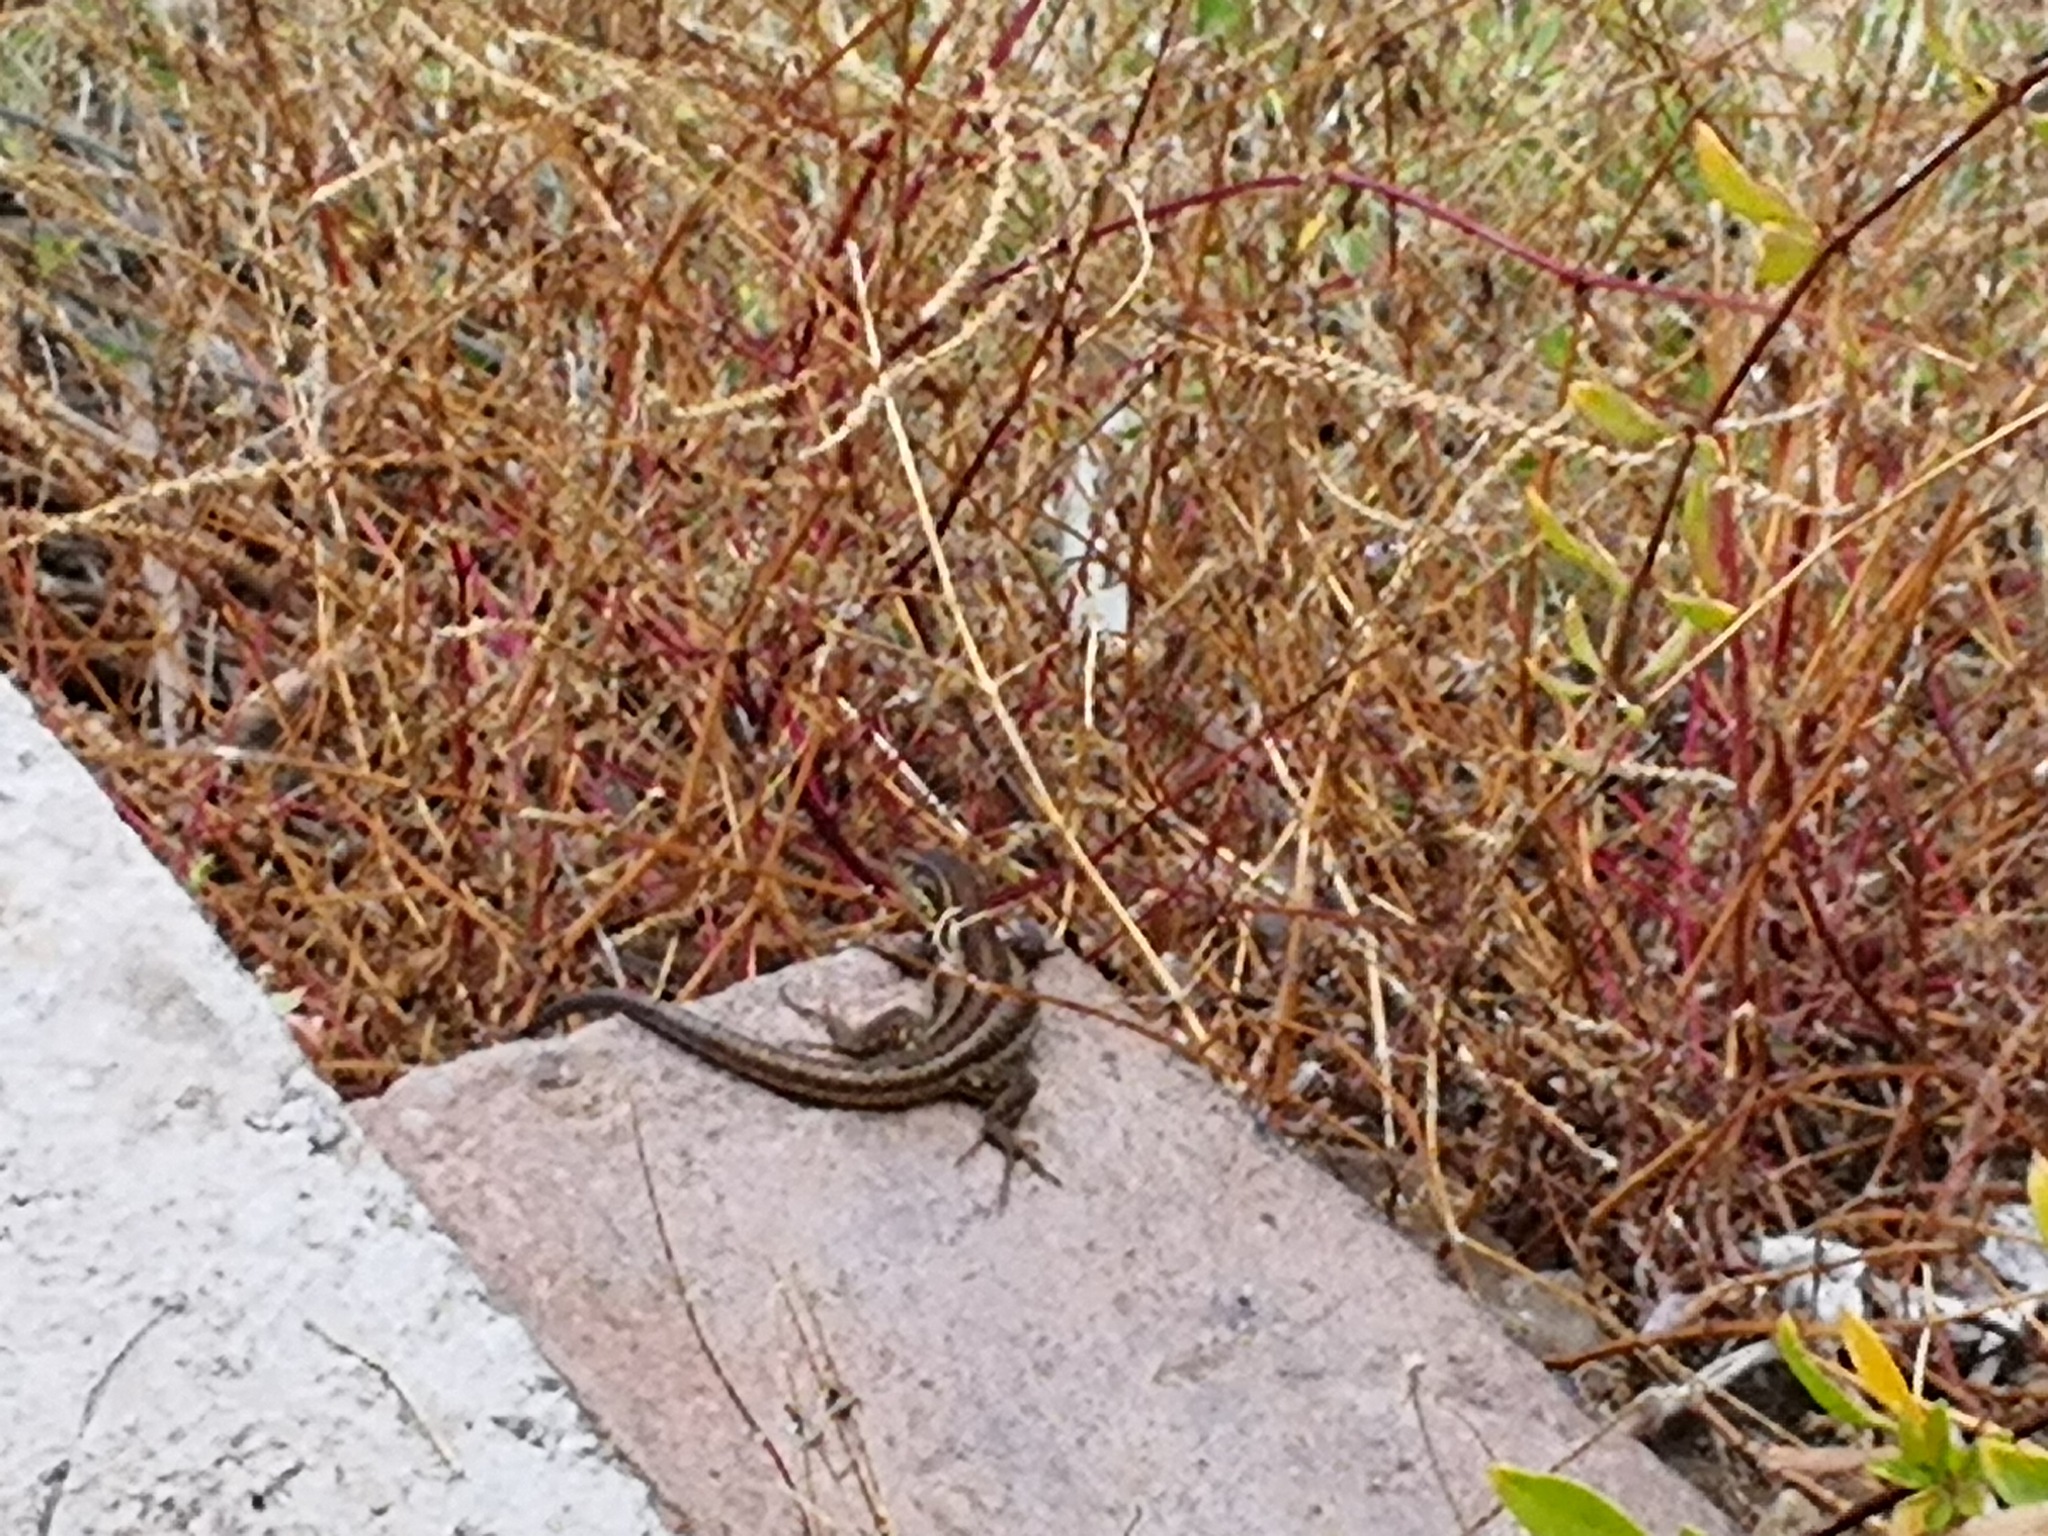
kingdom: Animalia
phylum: Chordata
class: Squamata
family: Lacertidae
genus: Gallotia
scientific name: Gallotia galloti
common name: Gallot's lizard
